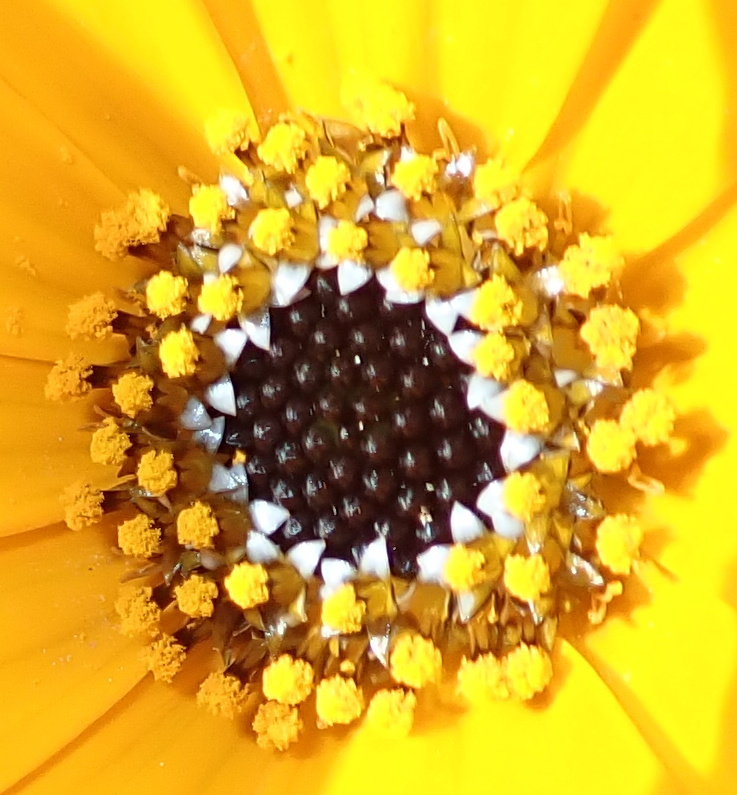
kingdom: Plantae
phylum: Tracheophyta
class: Magnoliopsida
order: Asterales
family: Asteraceae
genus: Osteospermum
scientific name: Osteospermum hyoseroides
